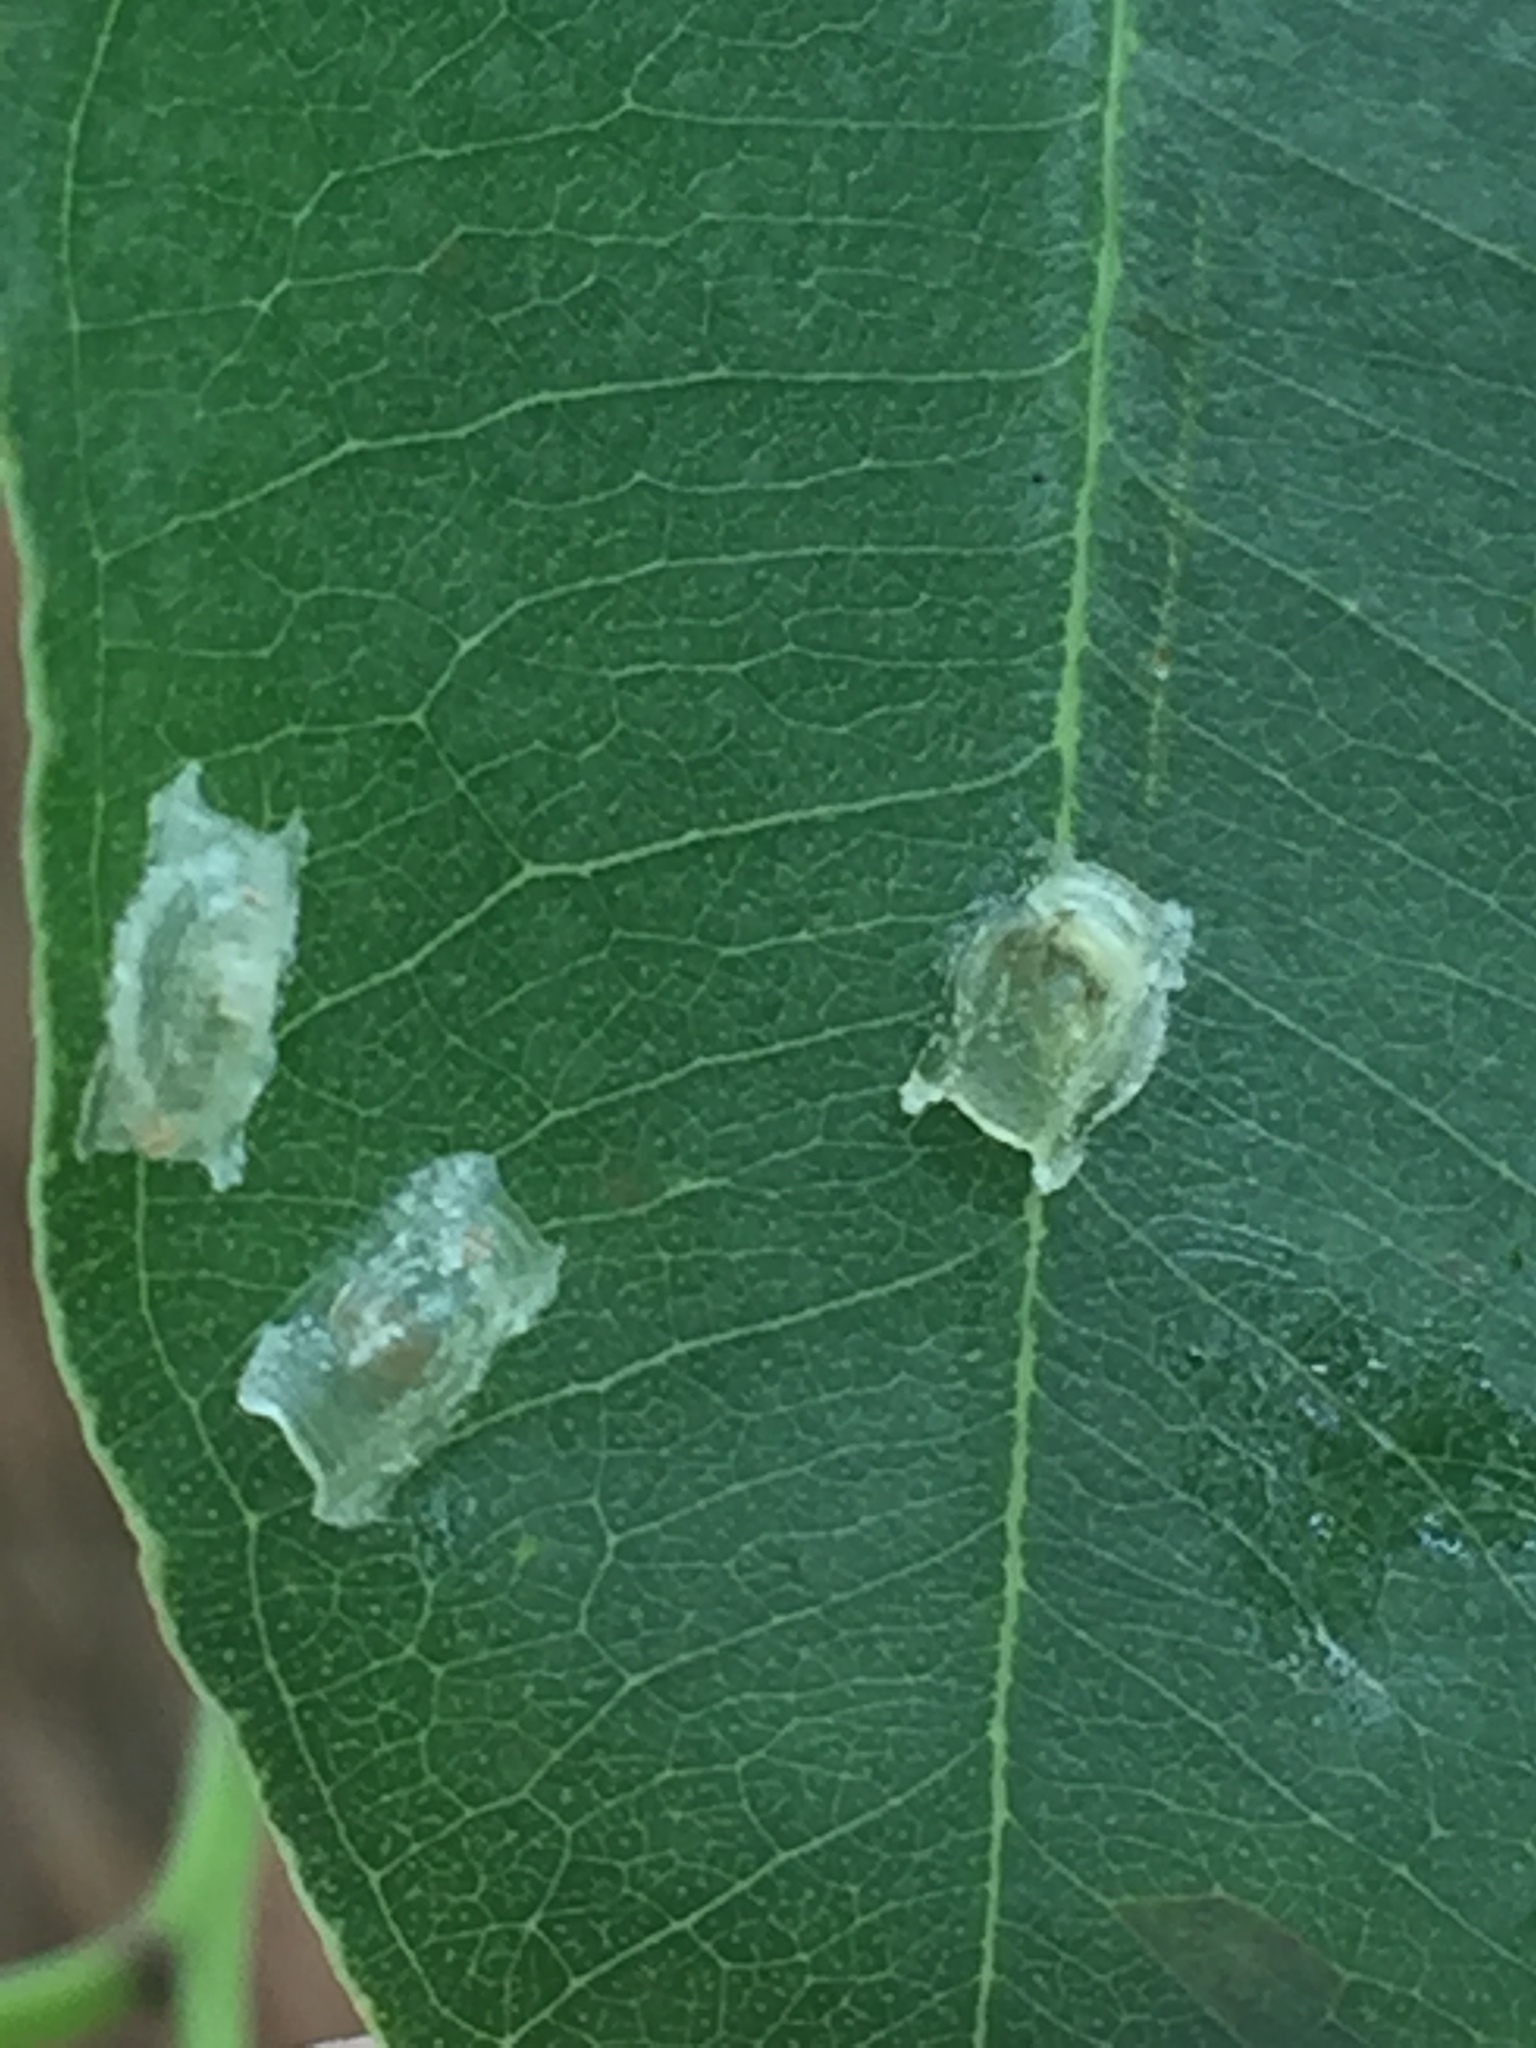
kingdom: Animalia
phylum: Arthropoda
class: Insecta
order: Hemiptera
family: Aphalaridae
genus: Glycaspis
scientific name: Glycaspis granulata
